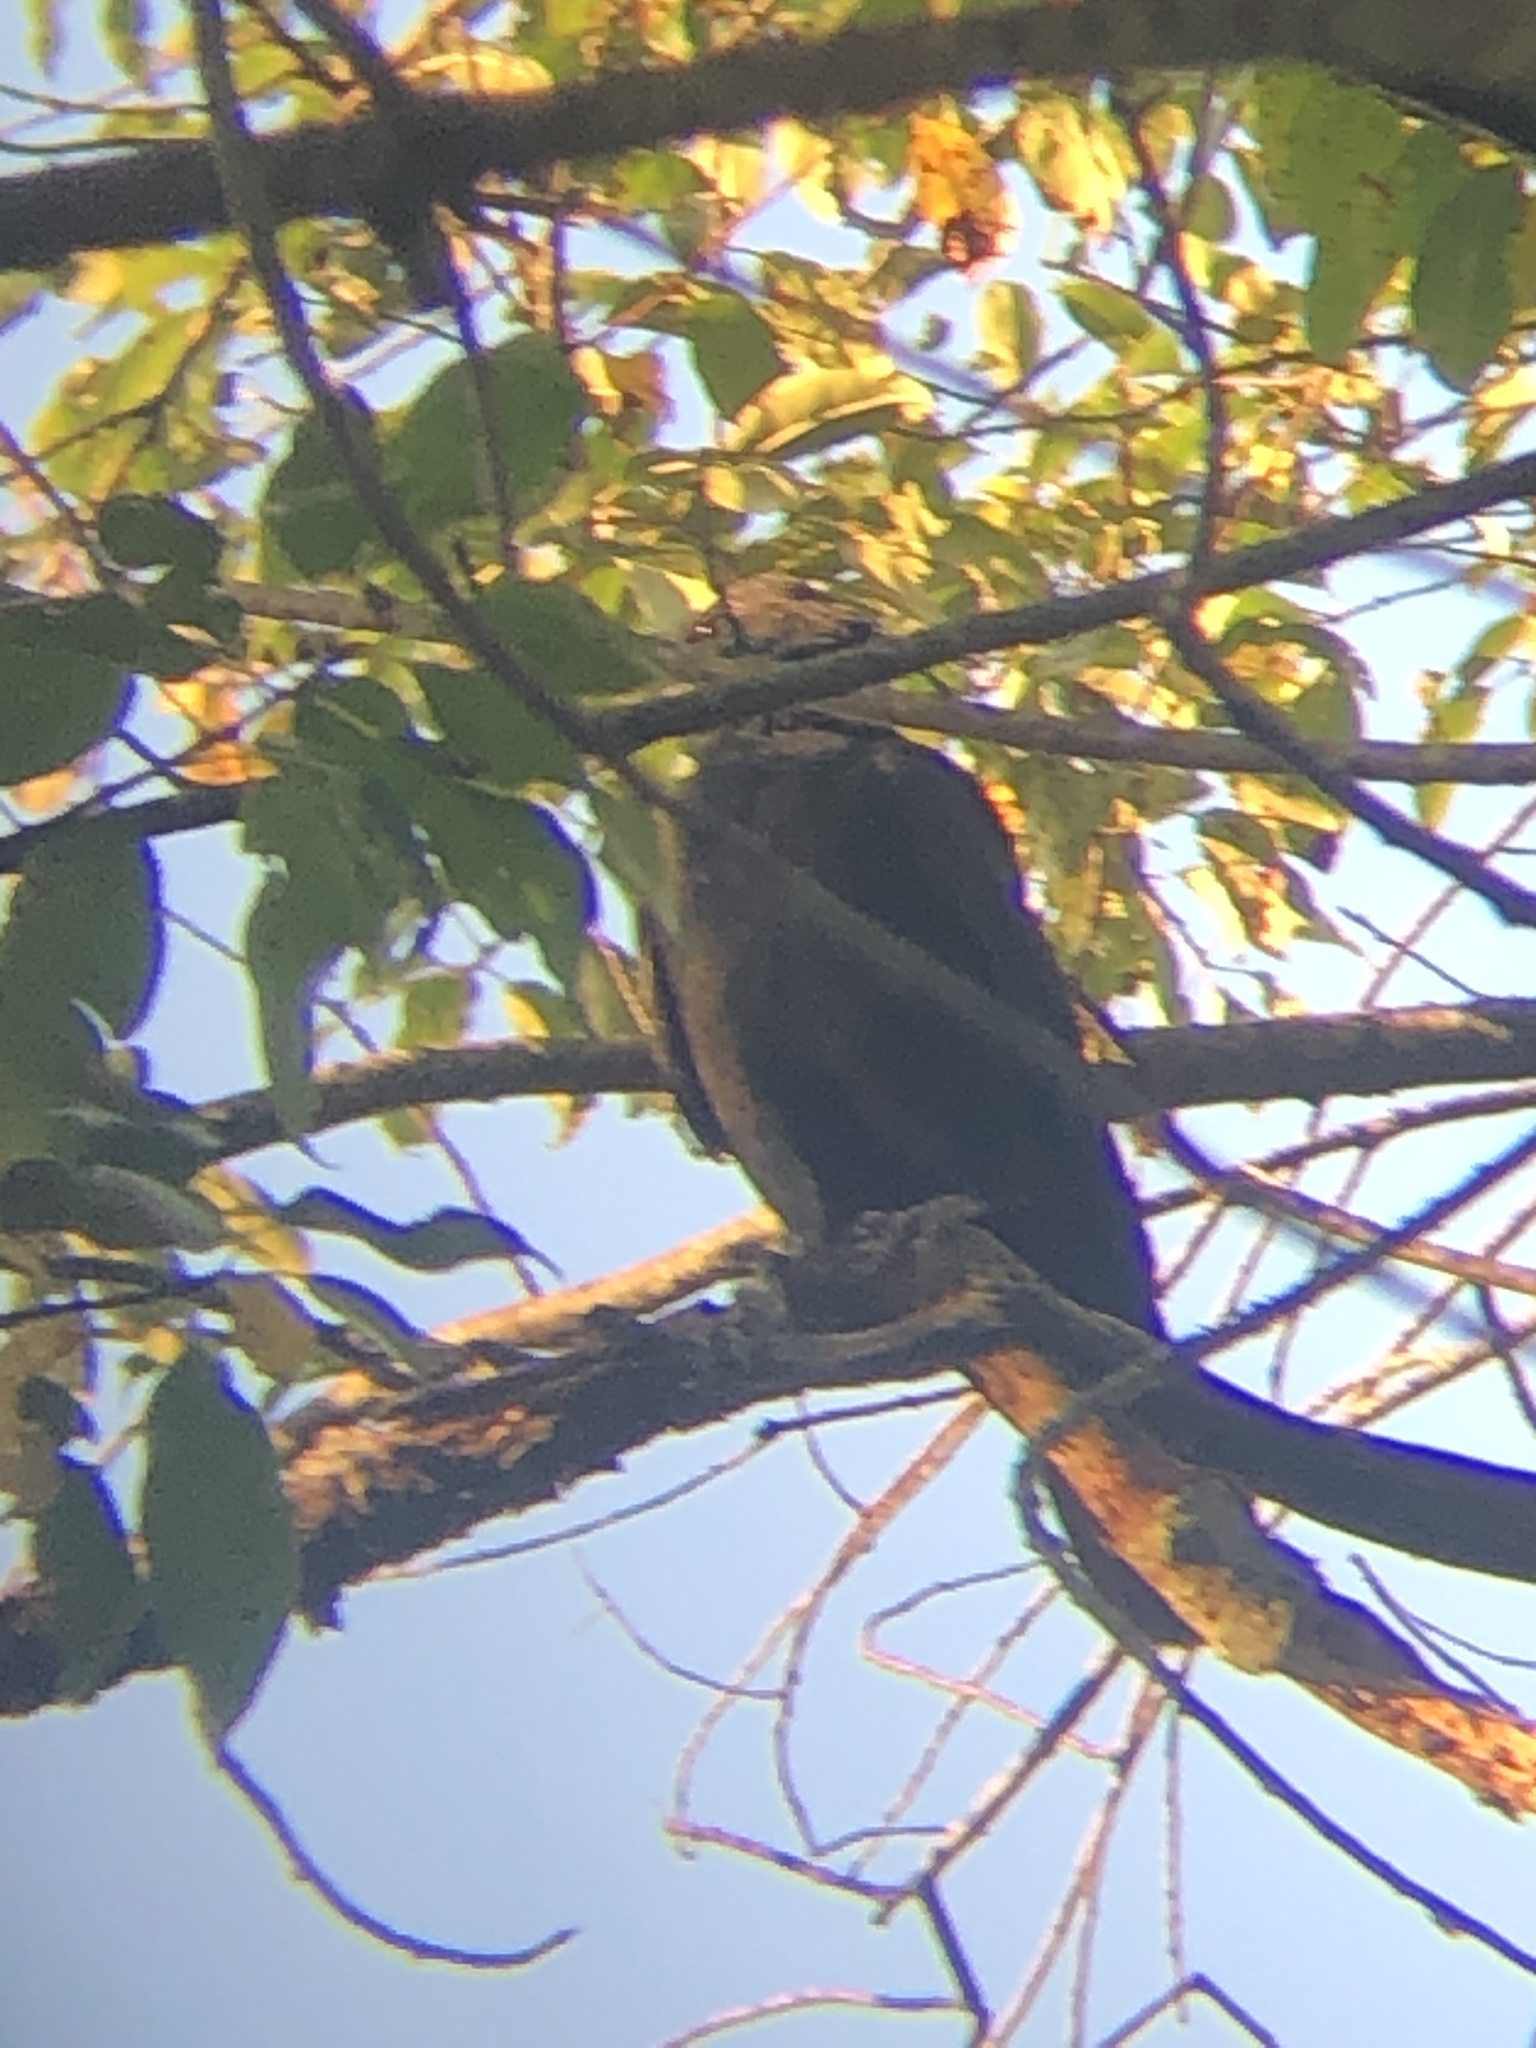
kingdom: Animalia
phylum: Chordata
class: Aves
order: Passeriformes
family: Corvidae
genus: Corvus
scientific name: Corvus brachyrhynchos
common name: American crow
